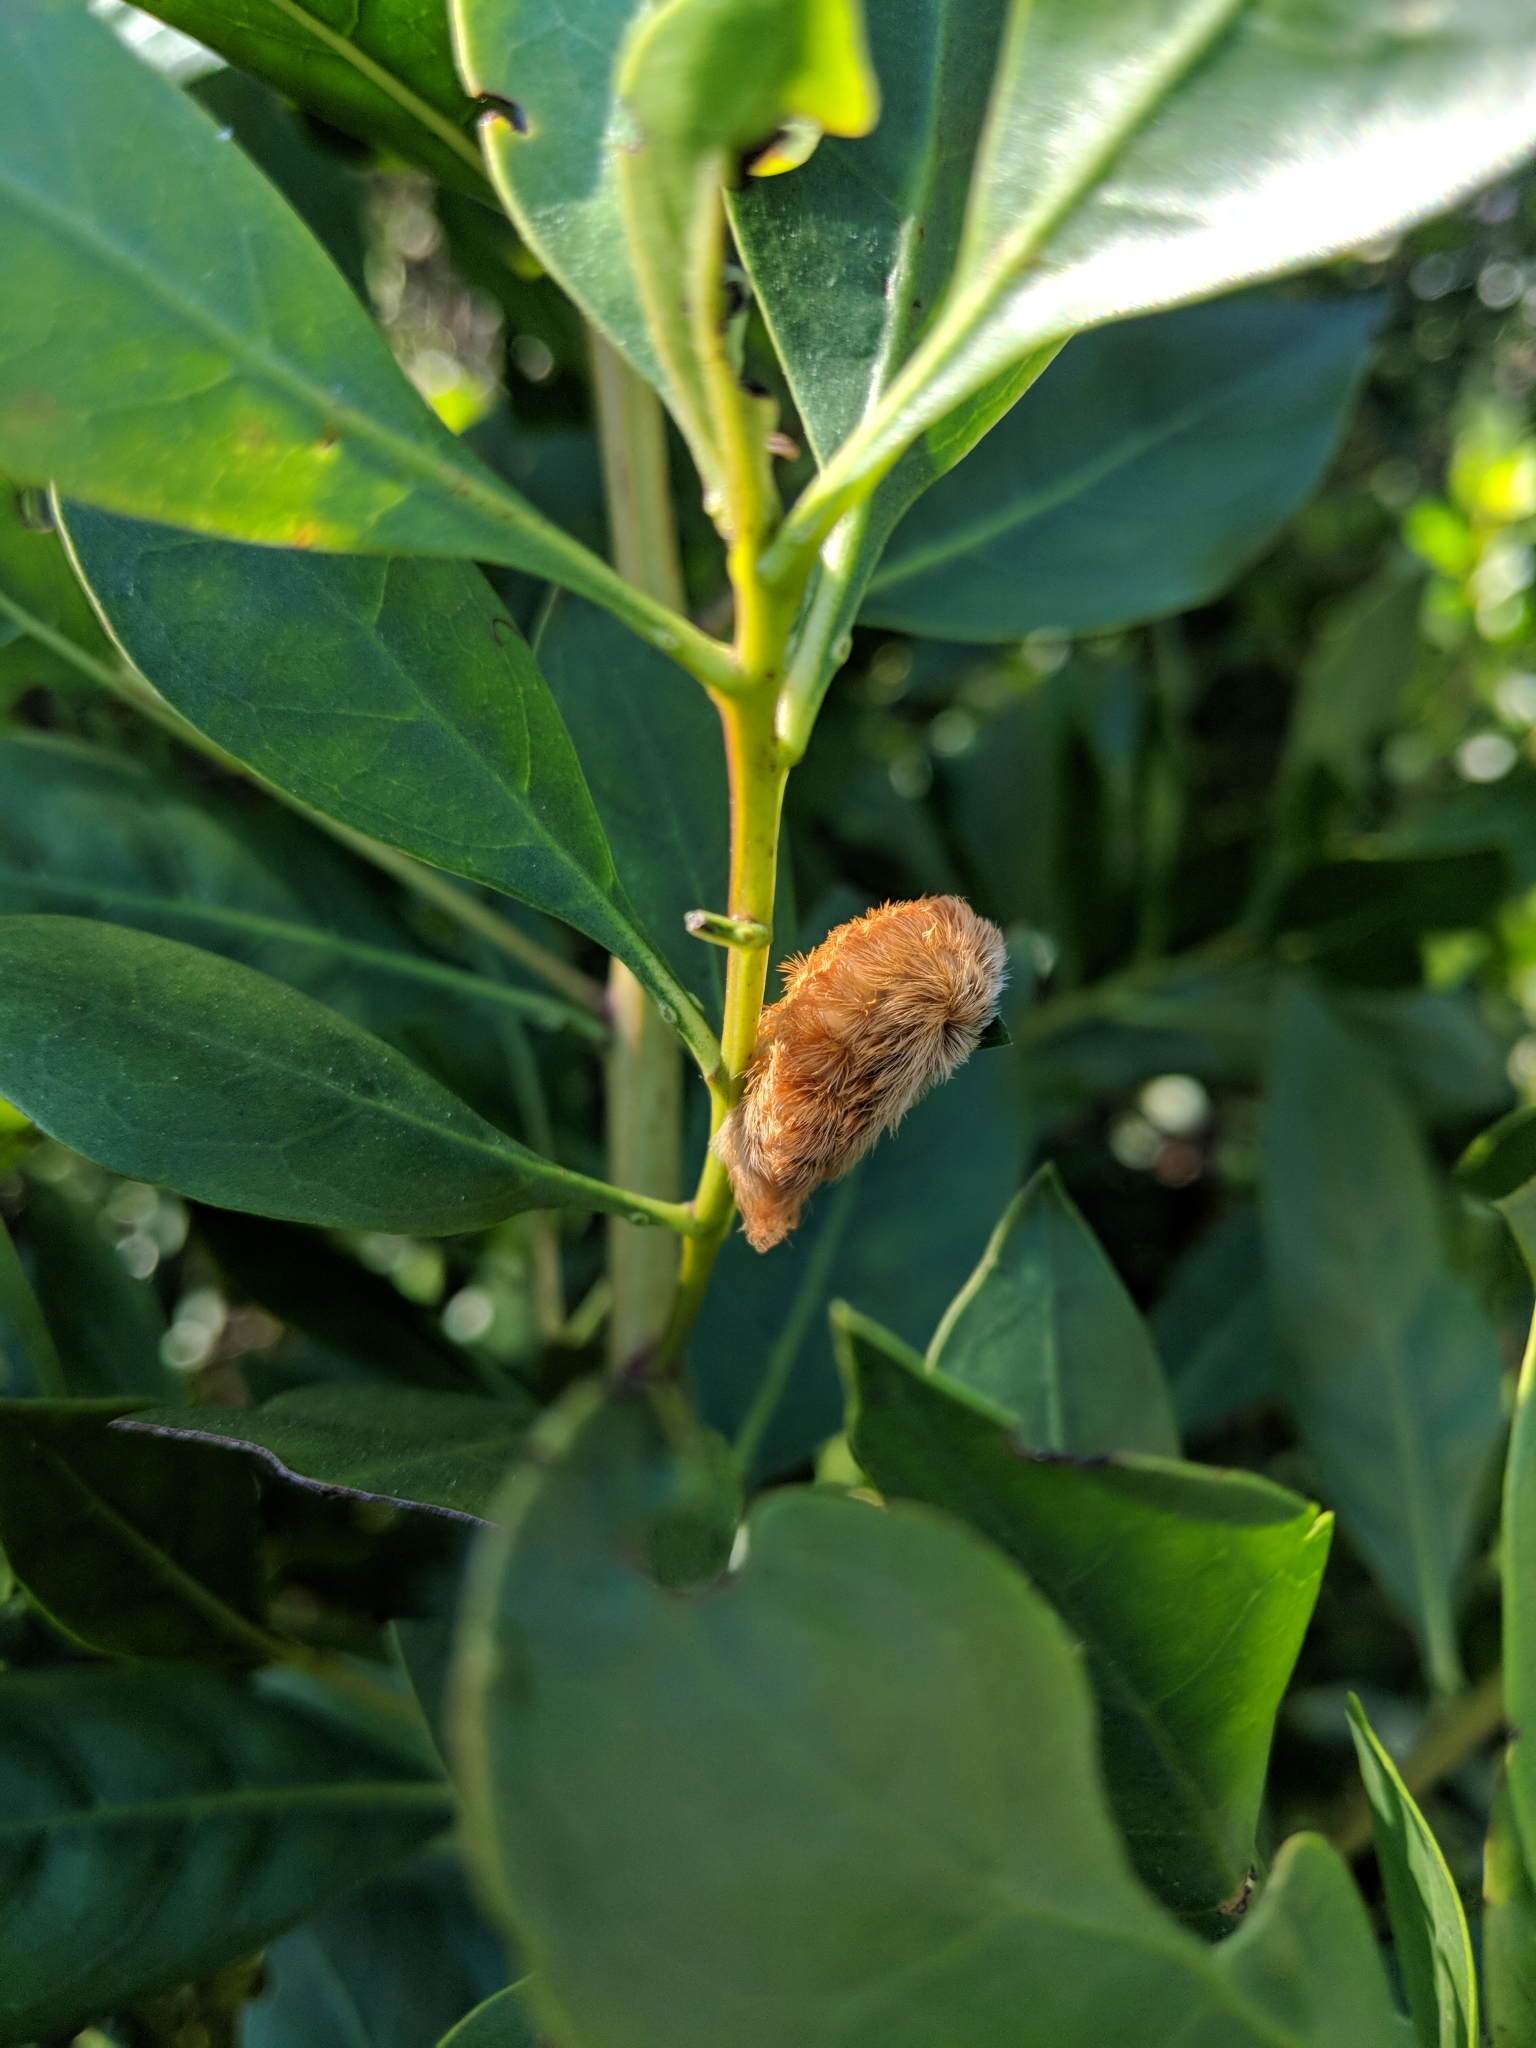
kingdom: Animalia
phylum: Arthropoda
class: Insecta
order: Lepidoptera
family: Megalopygidae
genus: Megalopyge
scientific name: Megalopyge opercularis
